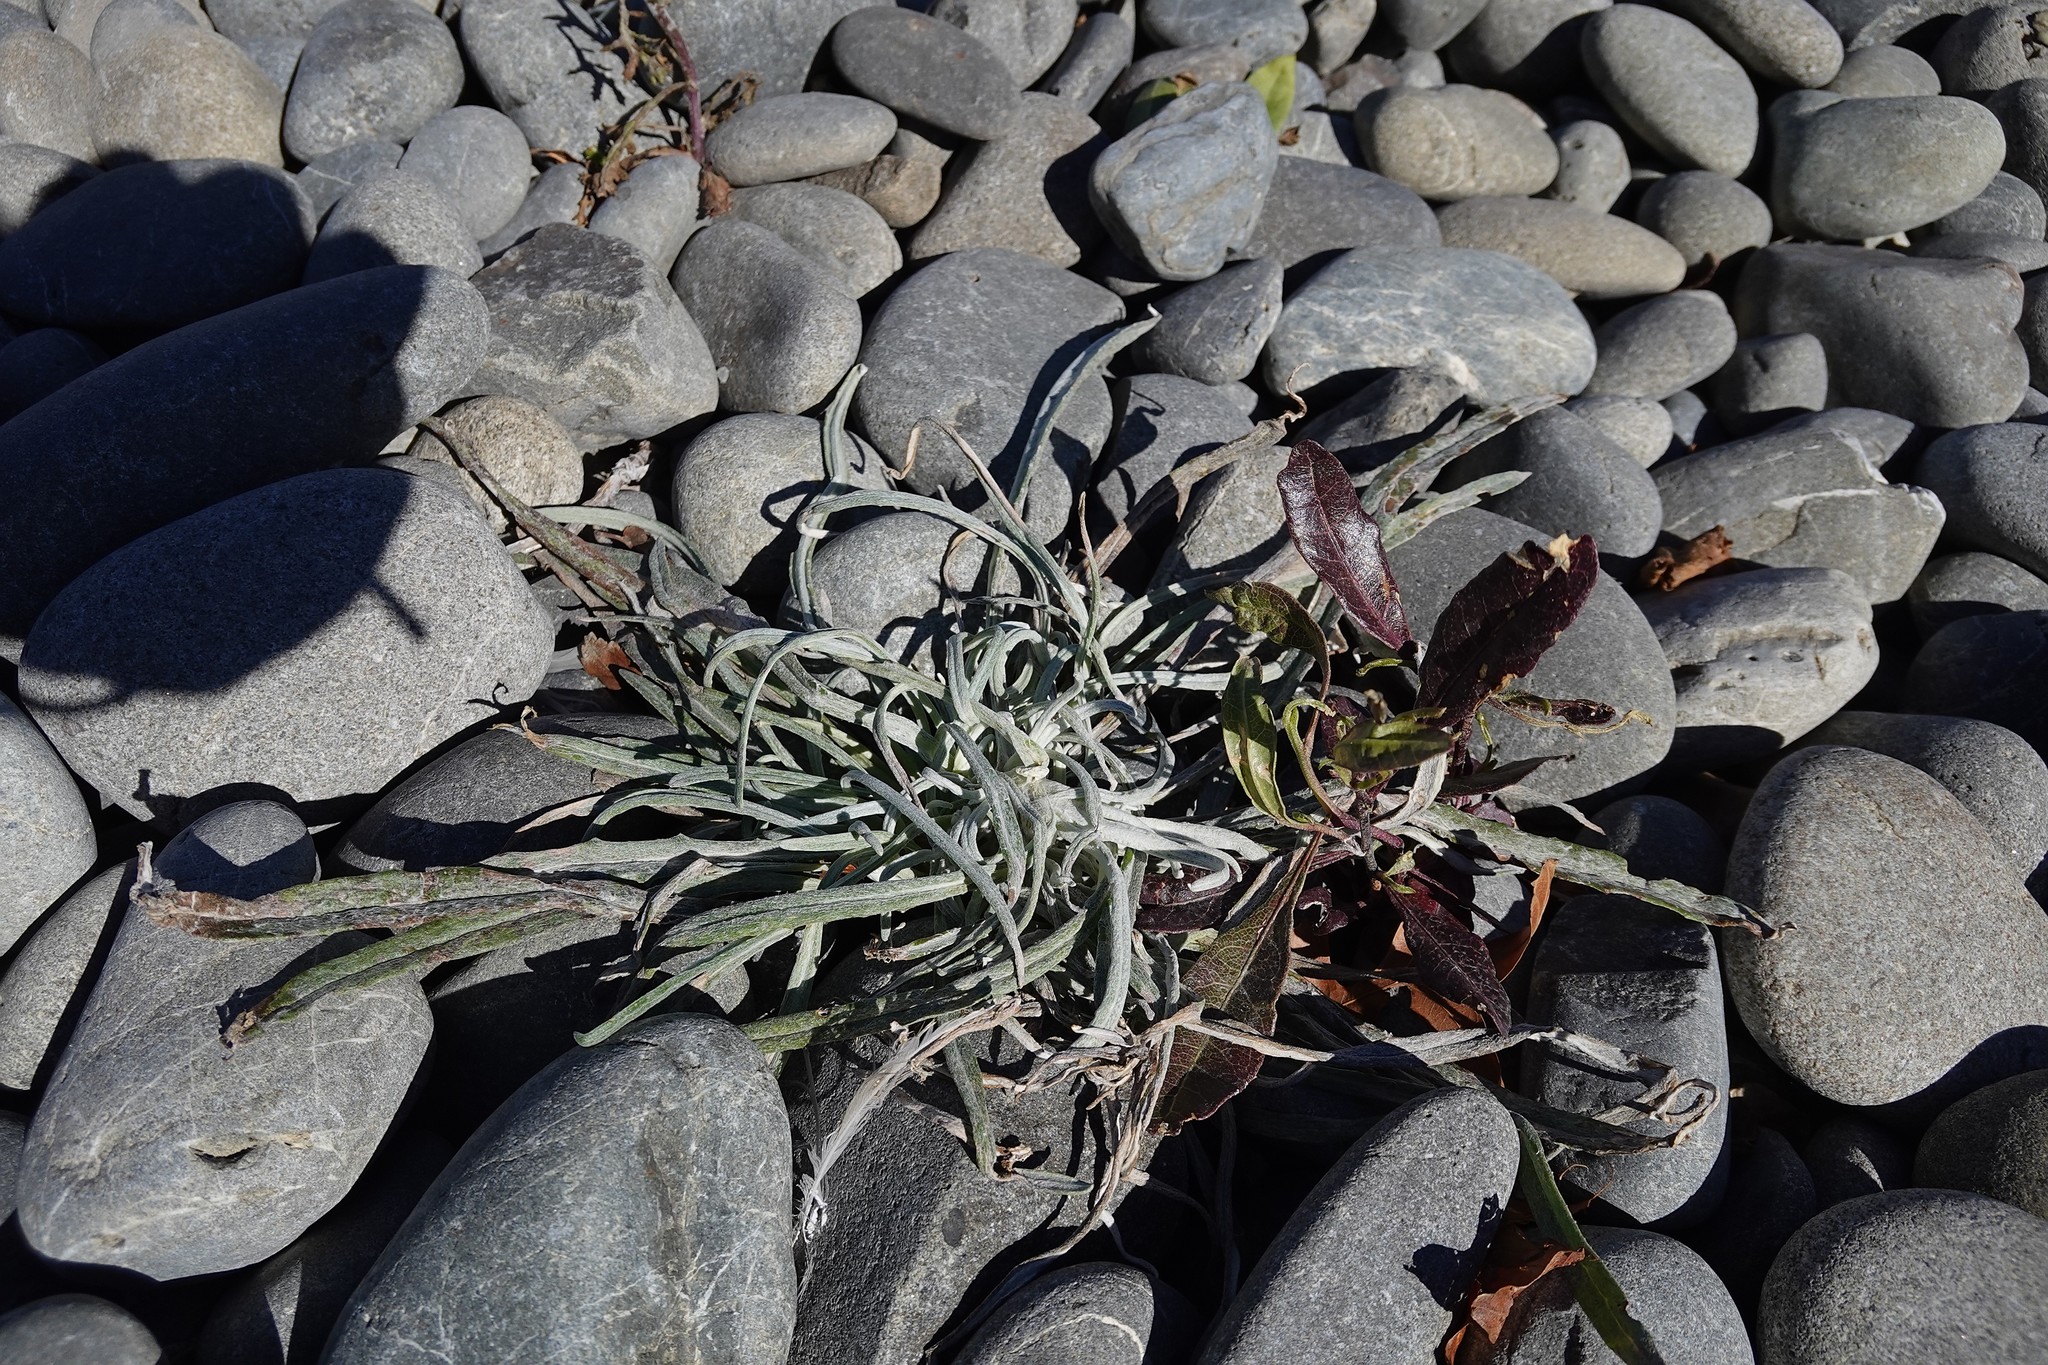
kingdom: Plantae
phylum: Tracheophyta
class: Magnoliopsida
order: Asterales
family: Asteraceae
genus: Senecio
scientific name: Senecio quadridentatus
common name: Cotton fireweed
